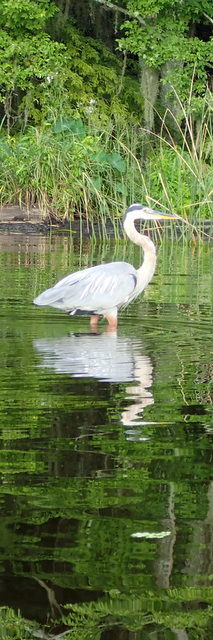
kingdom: Animalia
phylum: Chordata
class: Aves
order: Pelecaniformes
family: Ardeidae
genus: Ardea
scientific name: Ardea herodias
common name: Great blue heron
